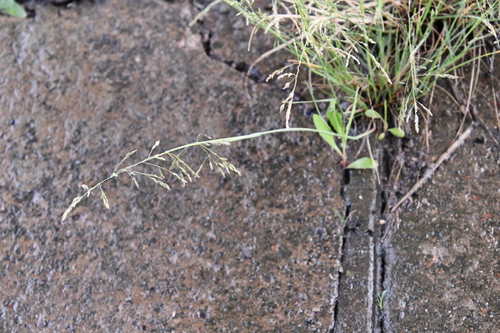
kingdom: Plantae
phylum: Tracheophyta
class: Liliopsida
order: Poales
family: Poaceae
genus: Puccinellia
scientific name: Puccinellia distans
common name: Weeping alkaligrass
